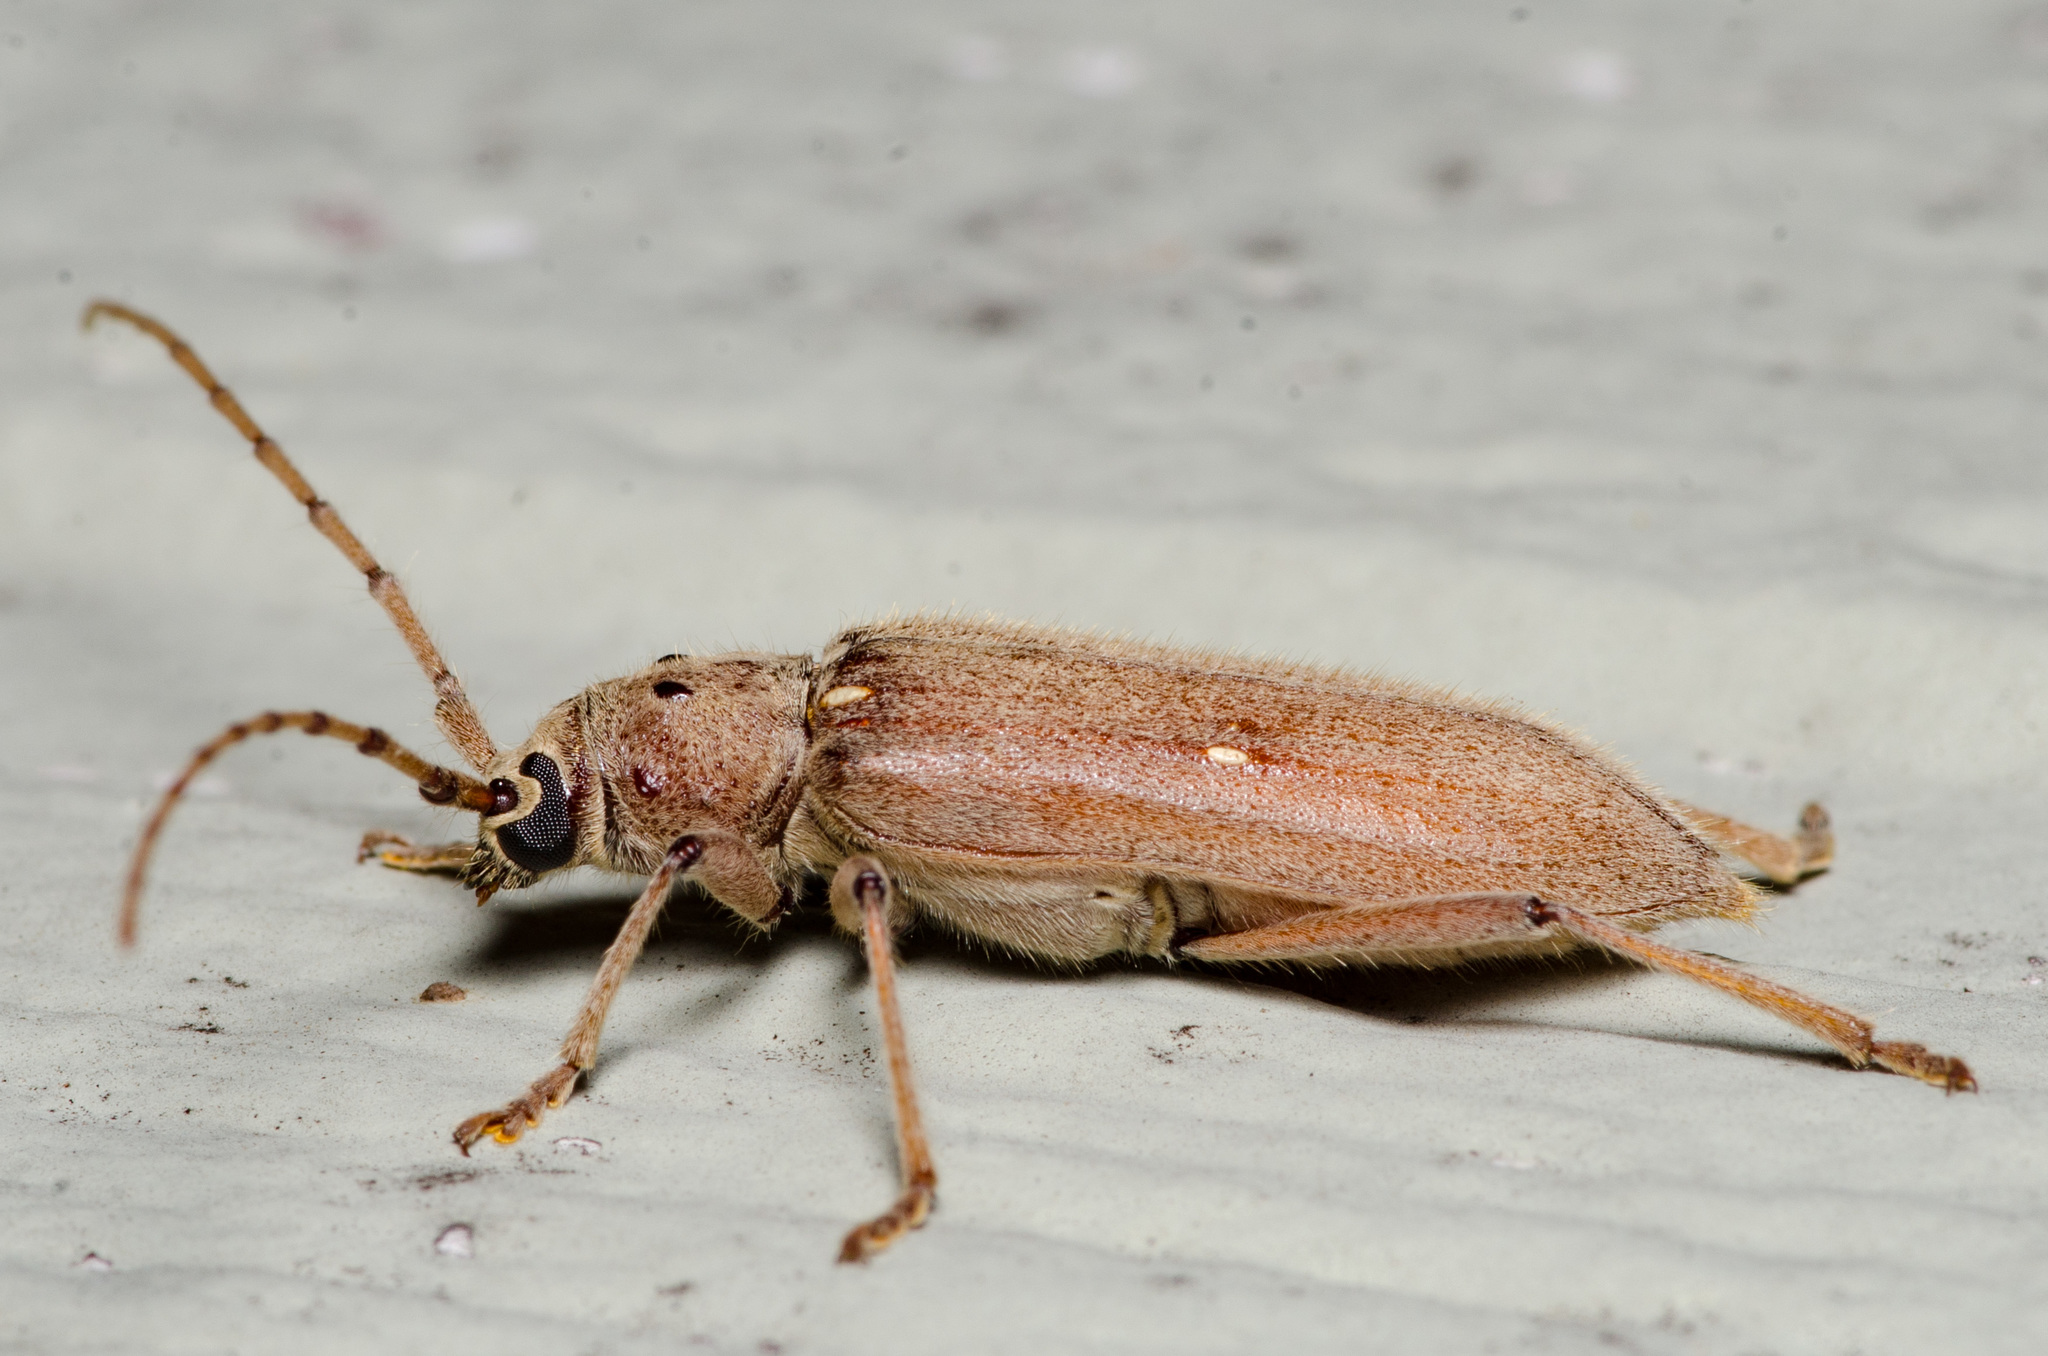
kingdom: Animalia
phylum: Arthropoda
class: Insecta
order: Coleoptera
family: Cerambycidae
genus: Eburia
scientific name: Eburia mutica
